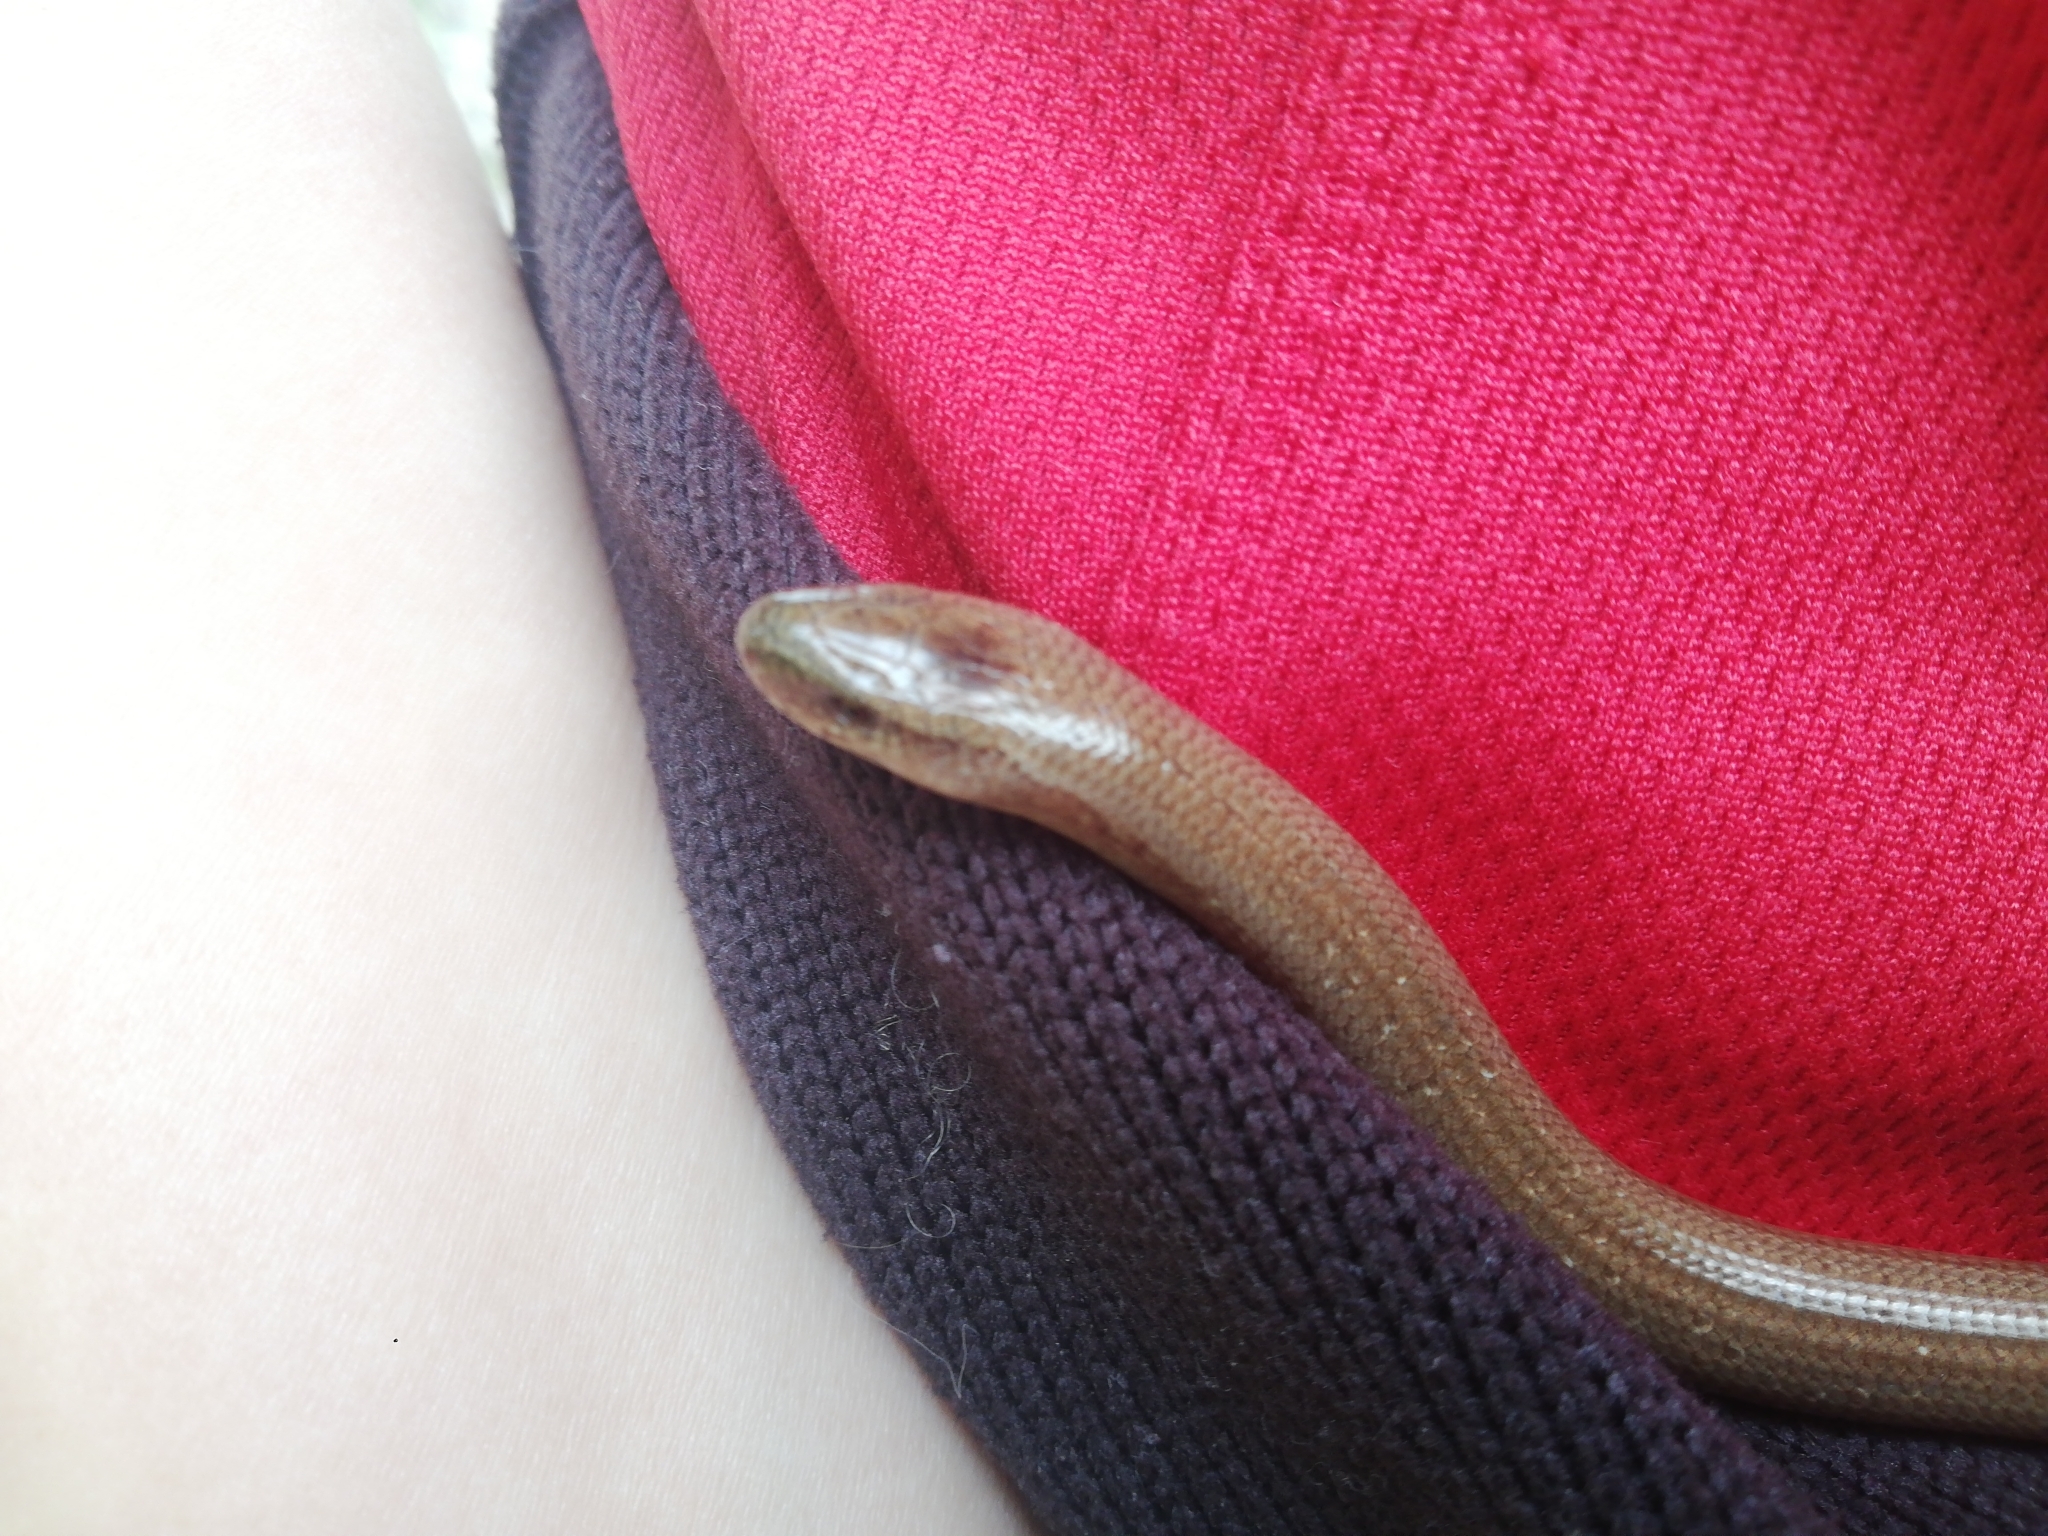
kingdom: Animalia
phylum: Chordata
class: Squamata
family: Anguidae
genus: Anguis
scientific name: Anguis veronensis
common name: Italian slow worm
